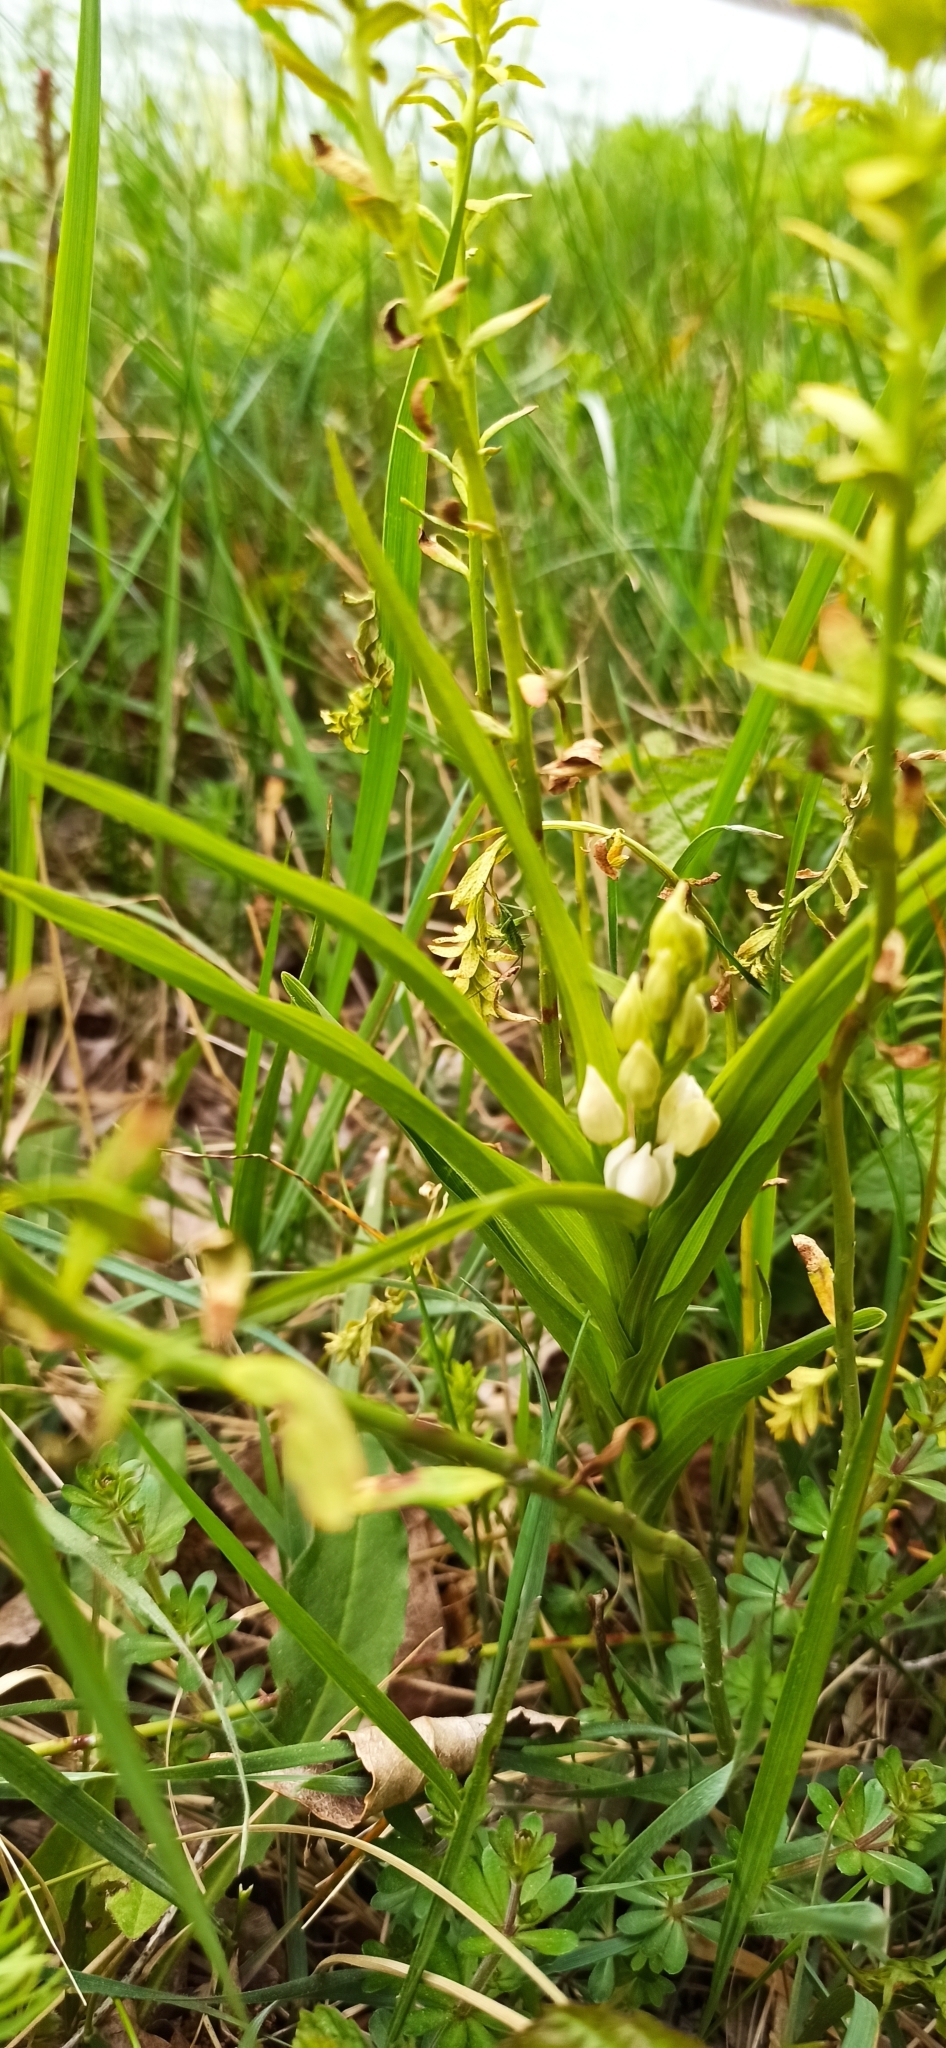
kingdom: Plantae
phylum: Tracheophyta
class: Liliopsida
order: Asparagales
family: Orchidaceae
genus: Cephalanthera
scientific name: Cephalanthera longifolia
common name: Narrow-leaved helleborine
